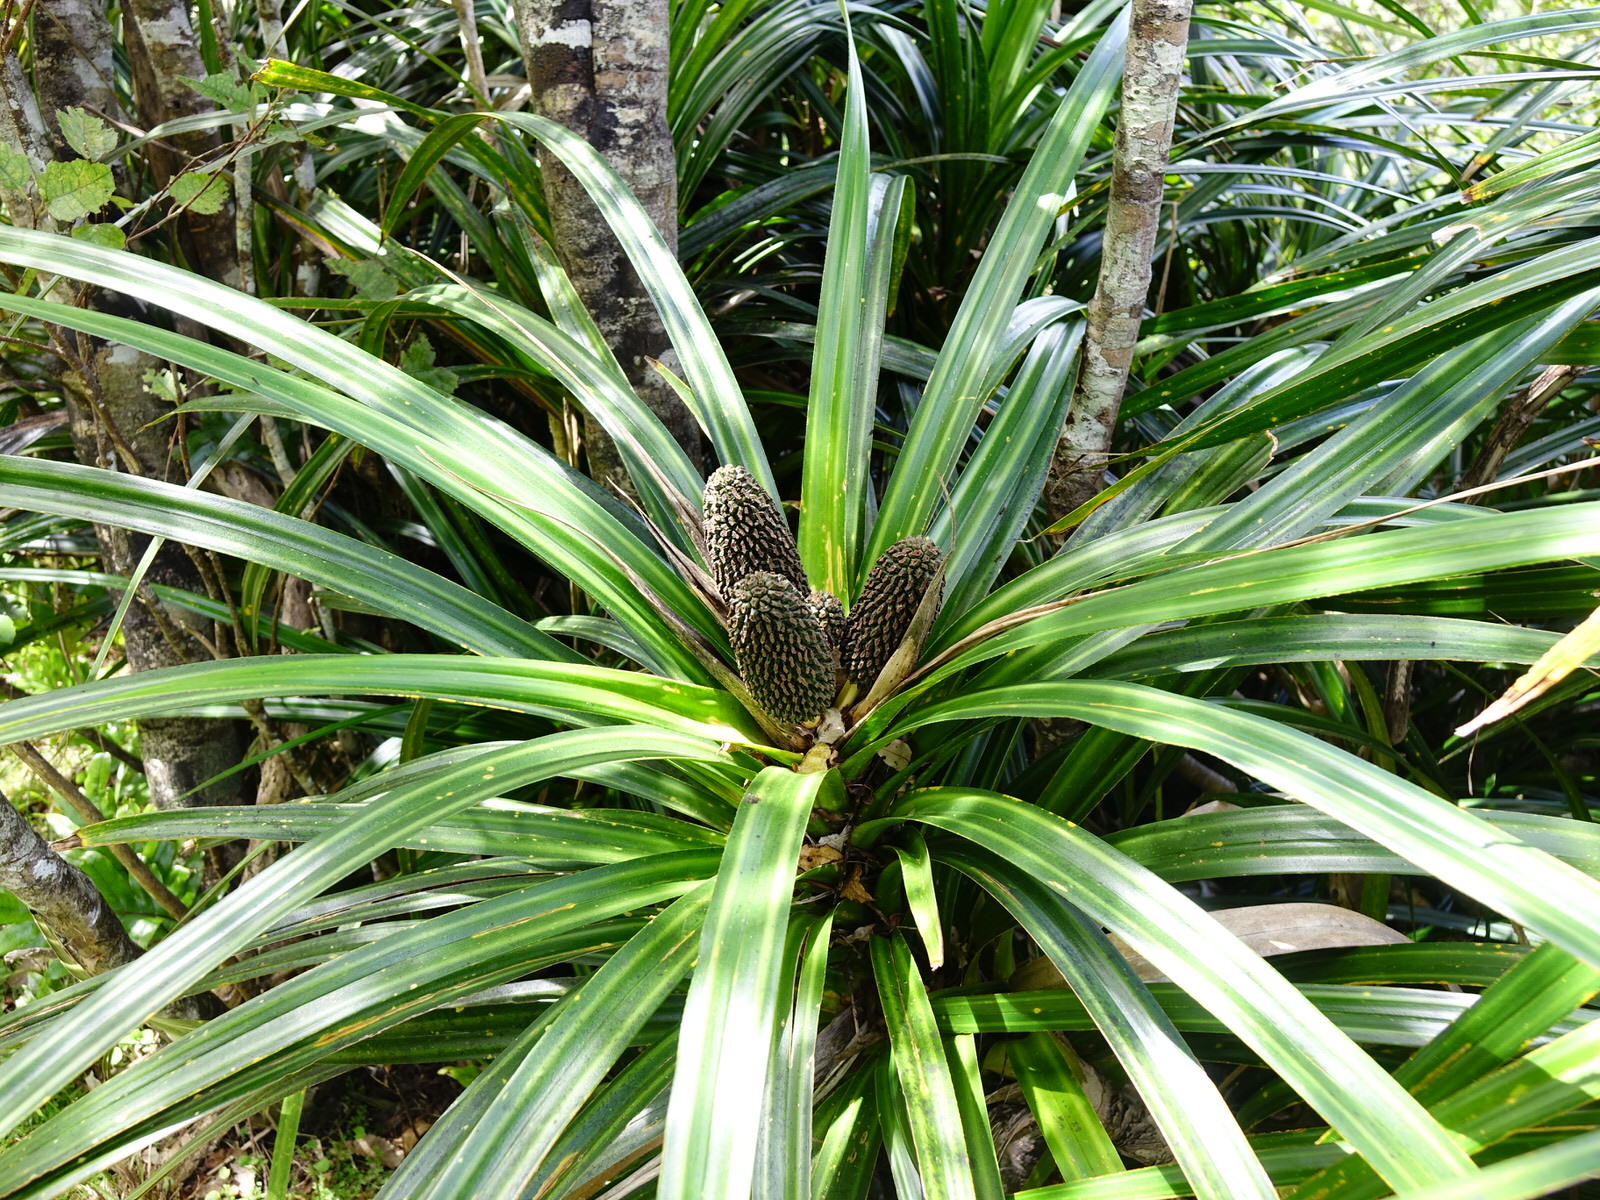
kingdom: Plantae
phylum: Tracheophyta
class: Liliopsida
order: Pandanales
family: Pandanaceae
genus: Freycinetia
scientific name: Freycinetia banksii
